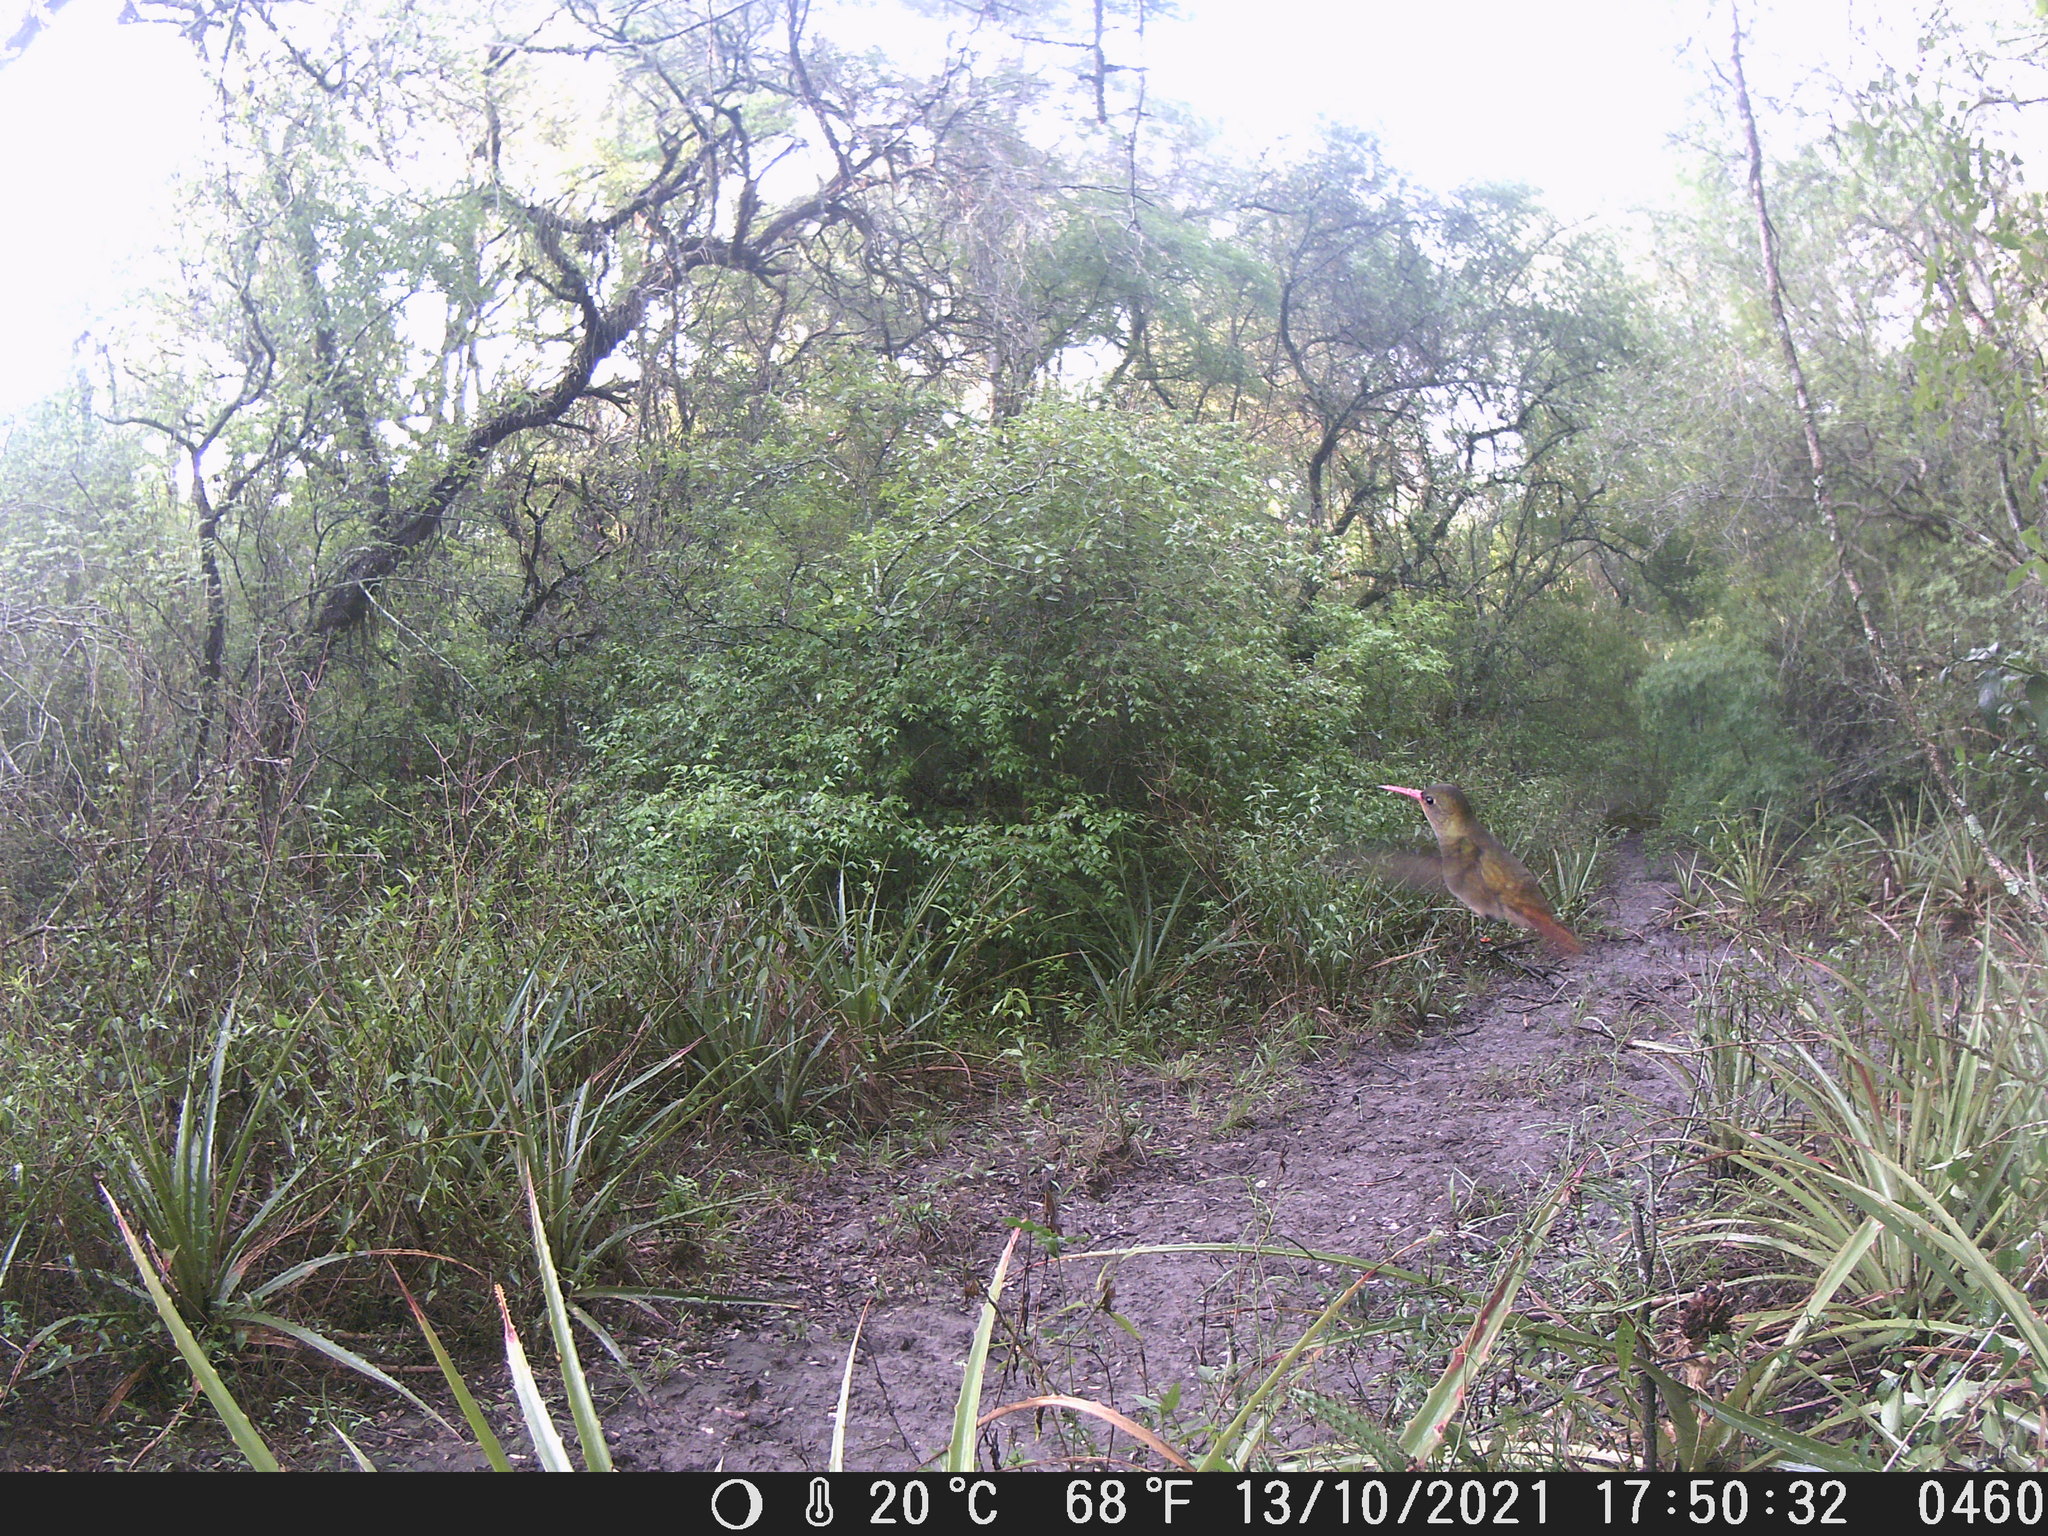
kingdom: Animalia
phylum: Chordata
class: Aves
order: Apodiformes
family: Trochilidae
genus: Hylocharis
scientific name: Hylocharis chrysura
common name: Gilded sapphire
